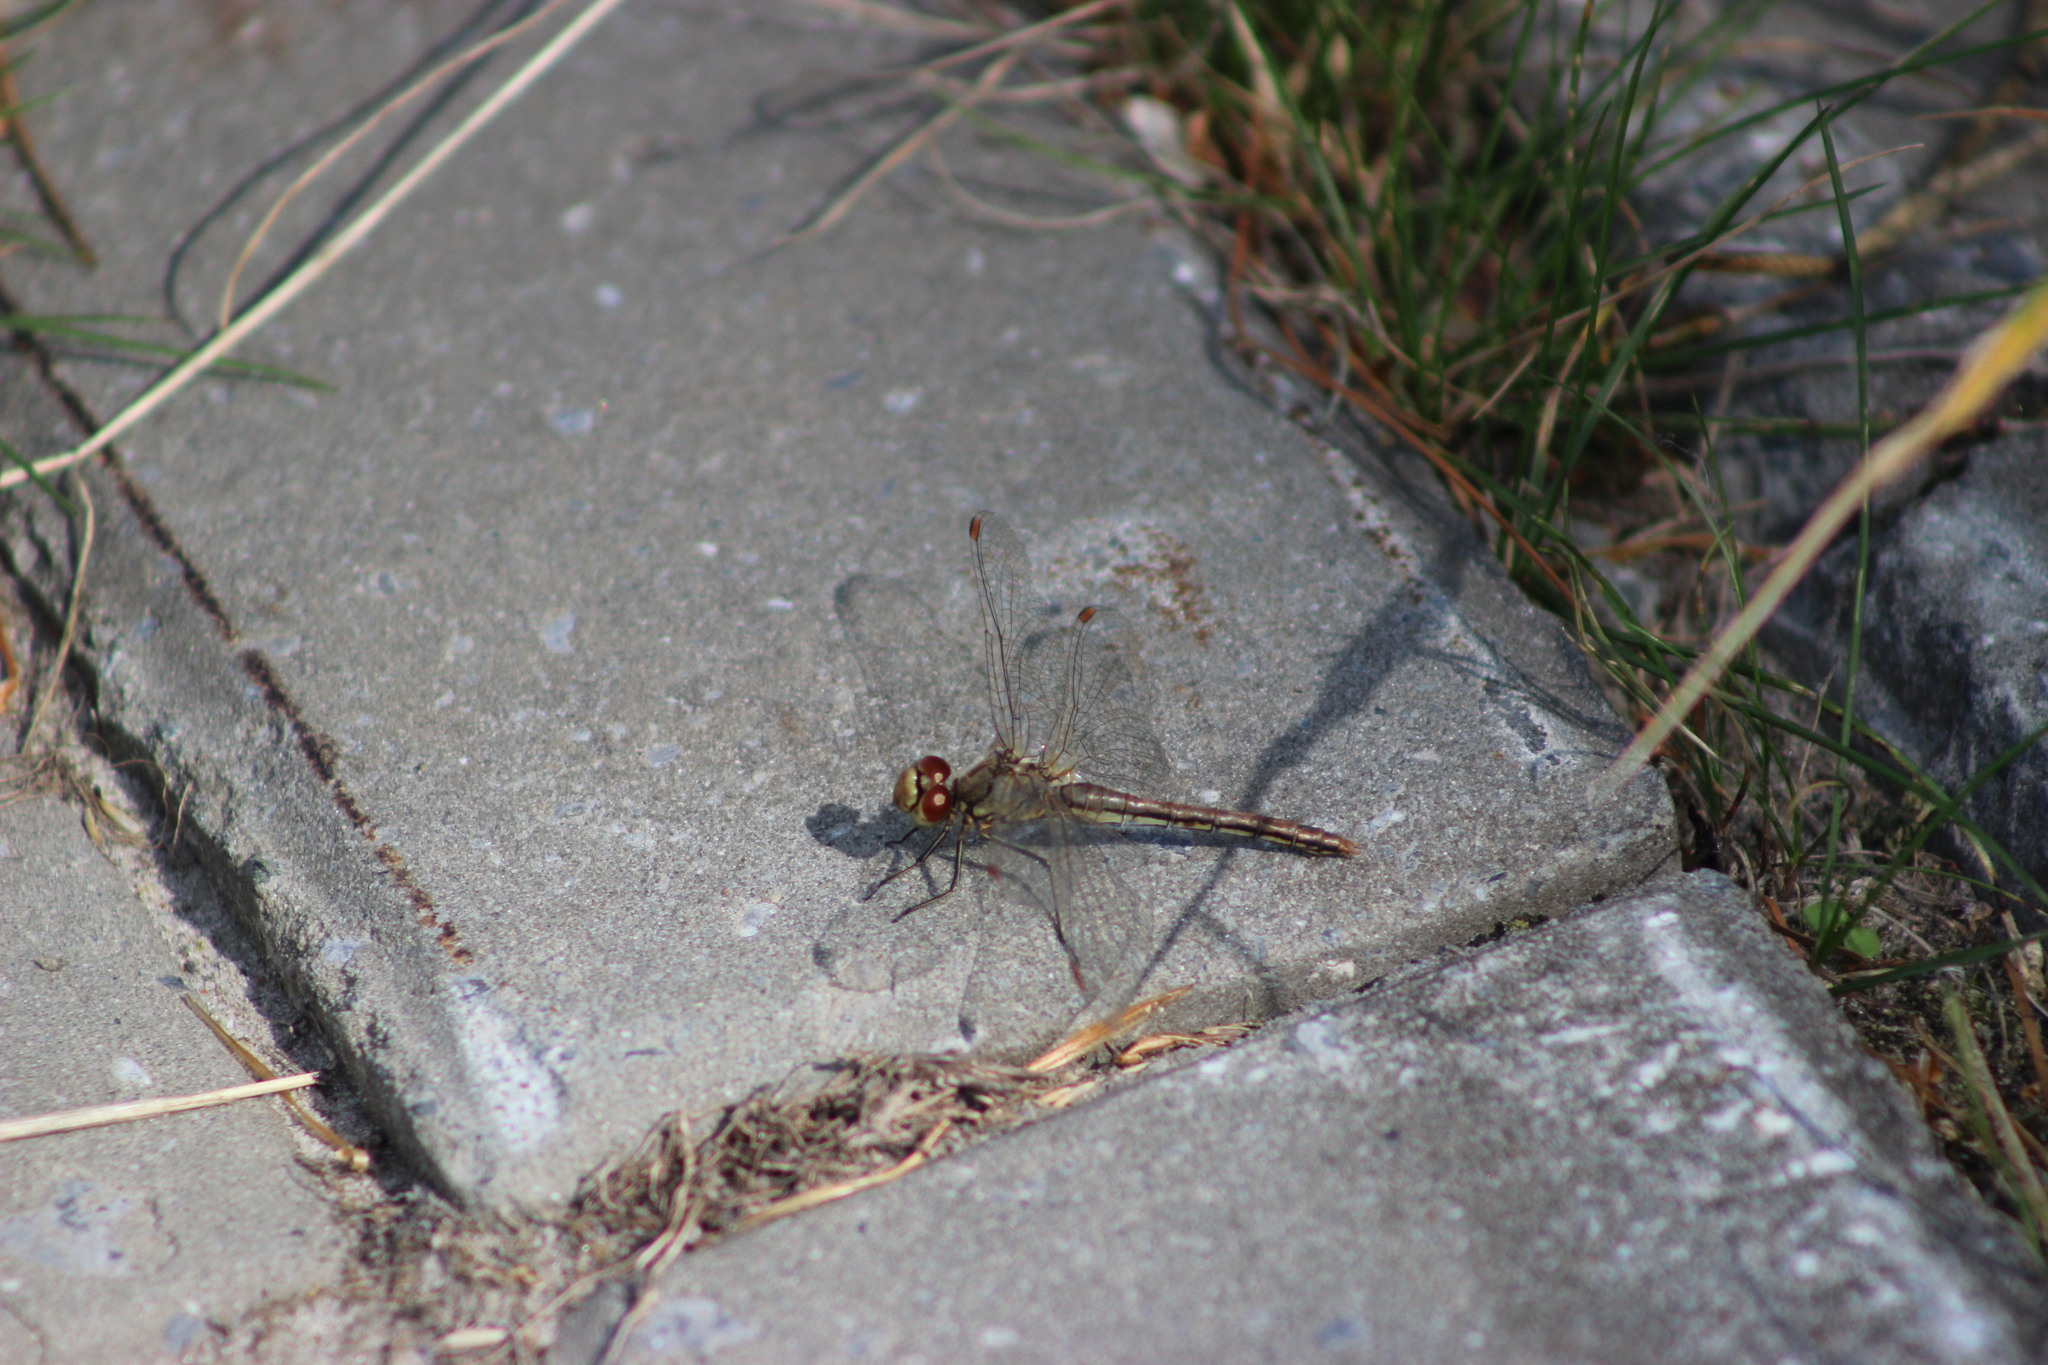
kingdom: Animalia
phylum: Arthropoda
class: Insecta
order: Odonata
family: Libellulidae
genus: Sympetrum
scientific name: Sympetrum flaveolum
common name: Yellow-winged darter
